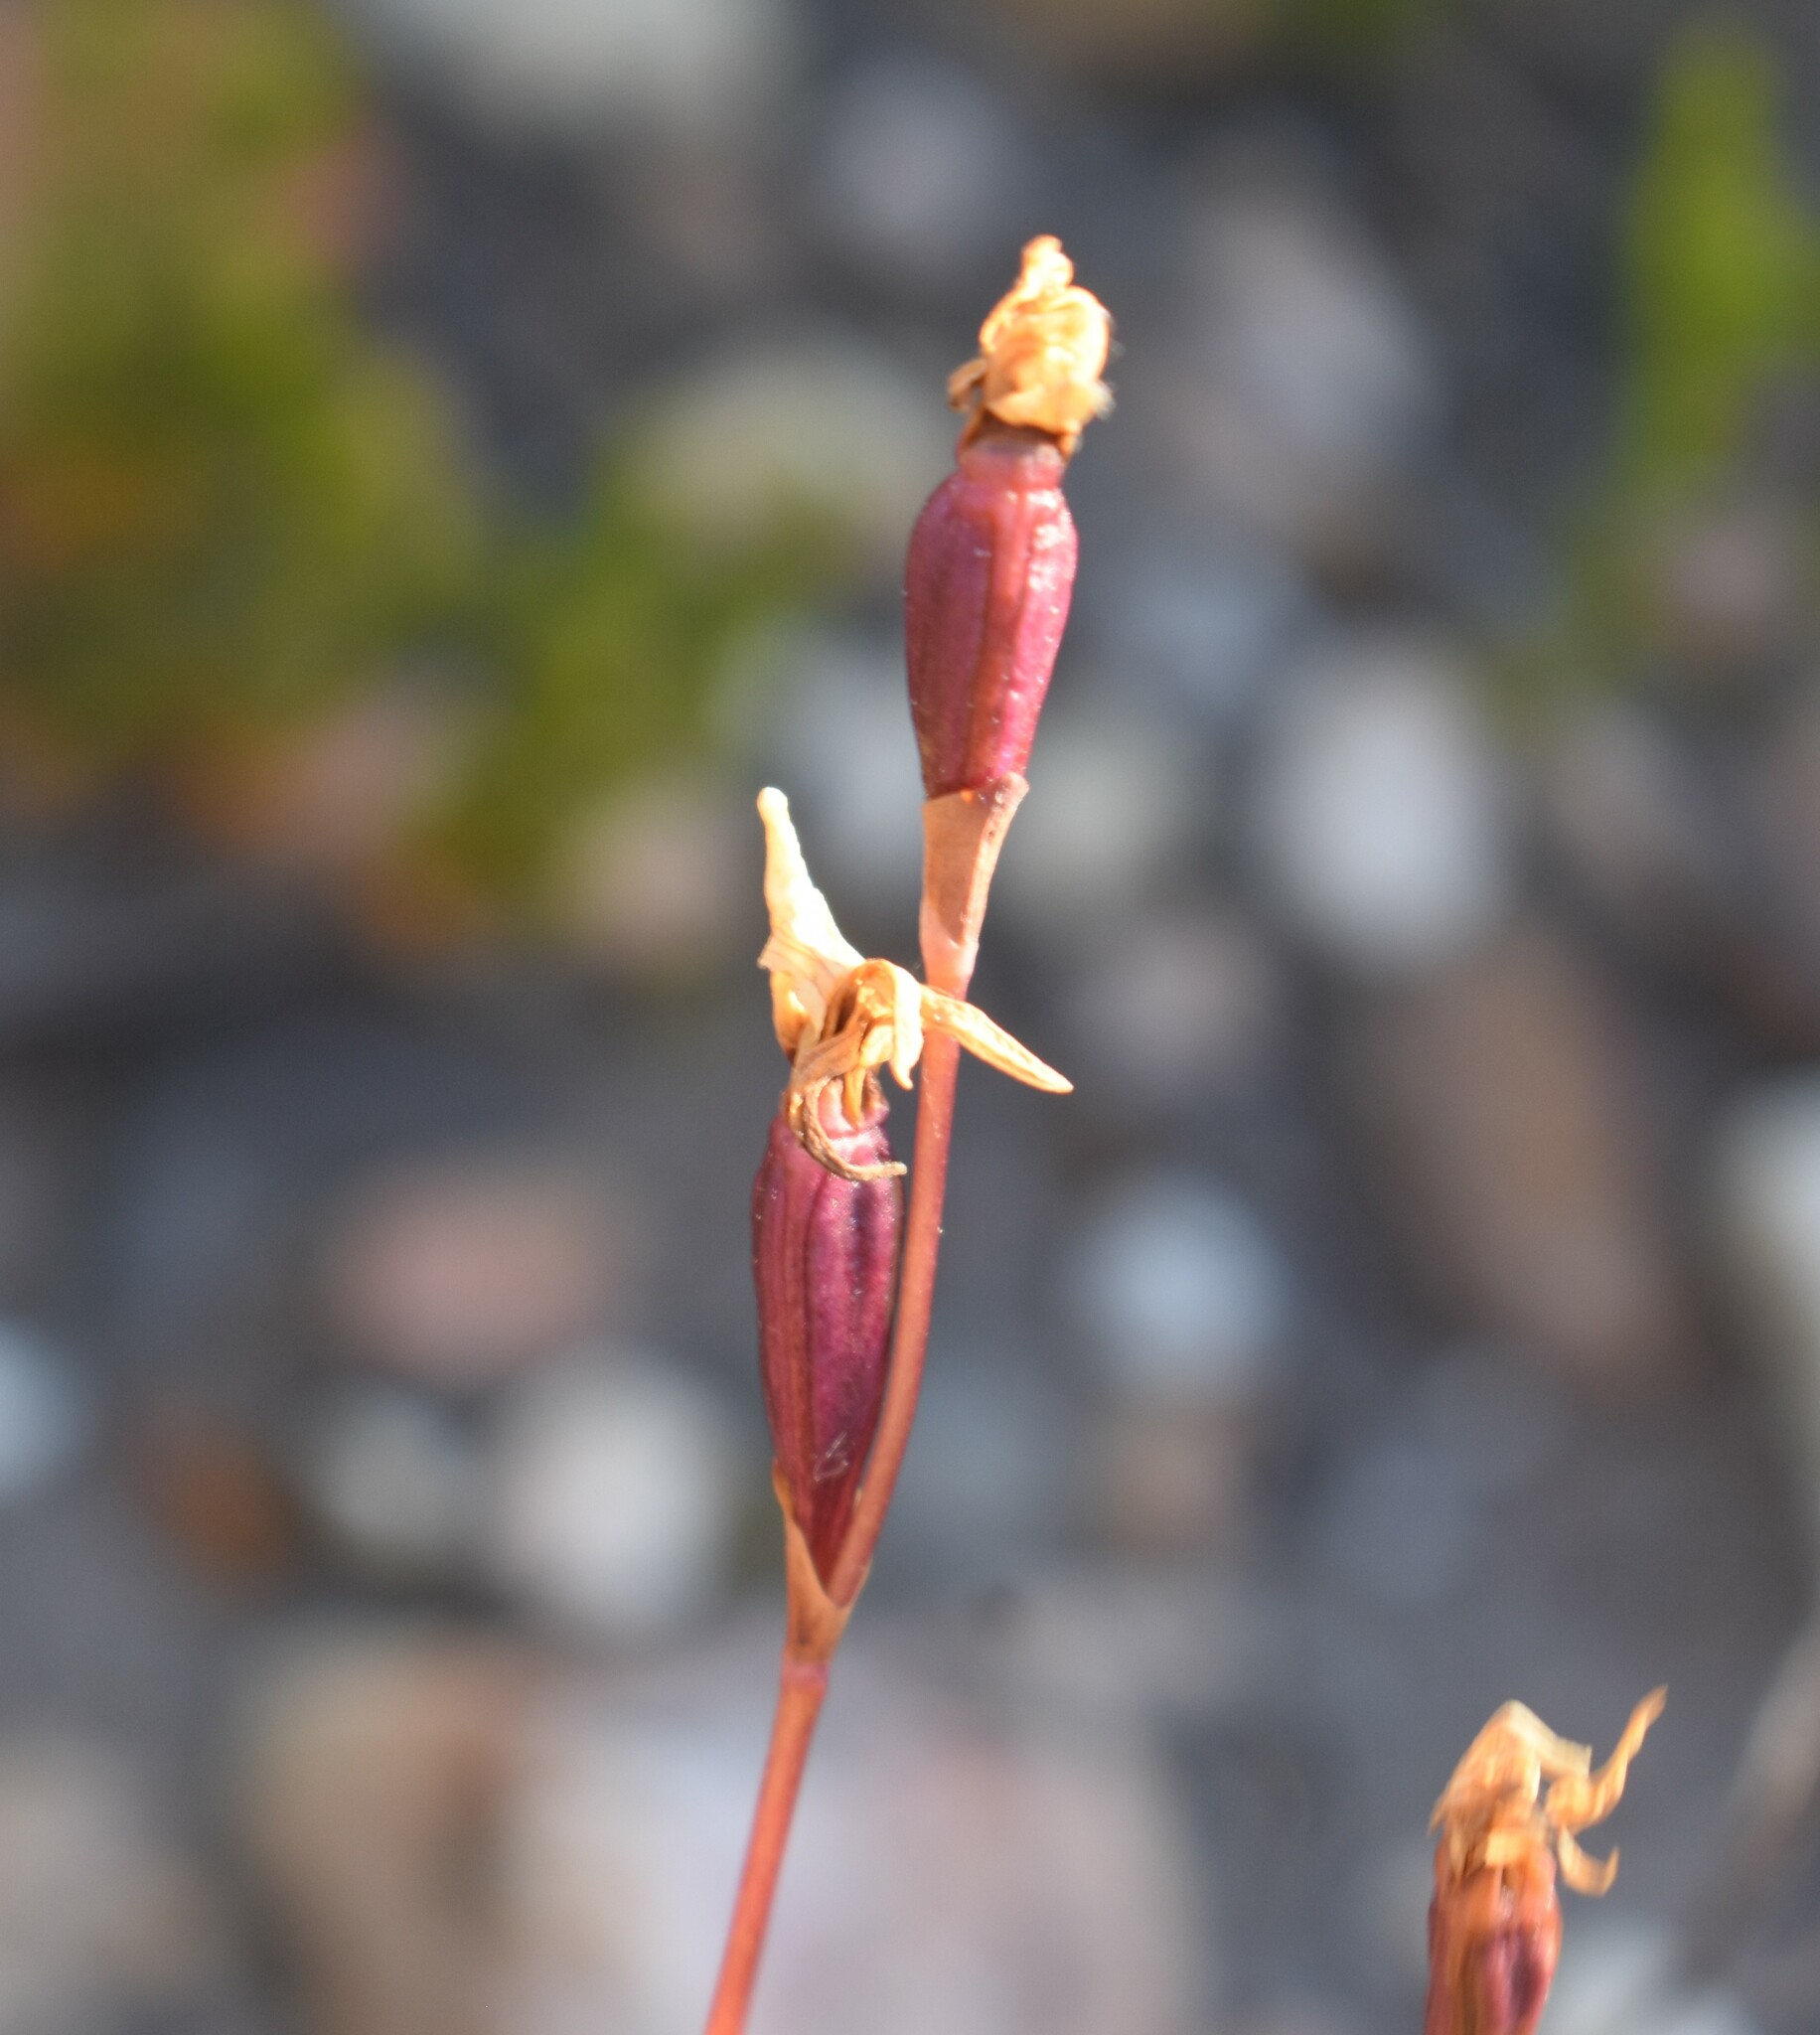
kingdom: Plantae
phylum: Tracheophyta
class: Liliopsida
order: Asparagales
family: Orchidaceae
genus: Disa
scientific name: Disa bifida
